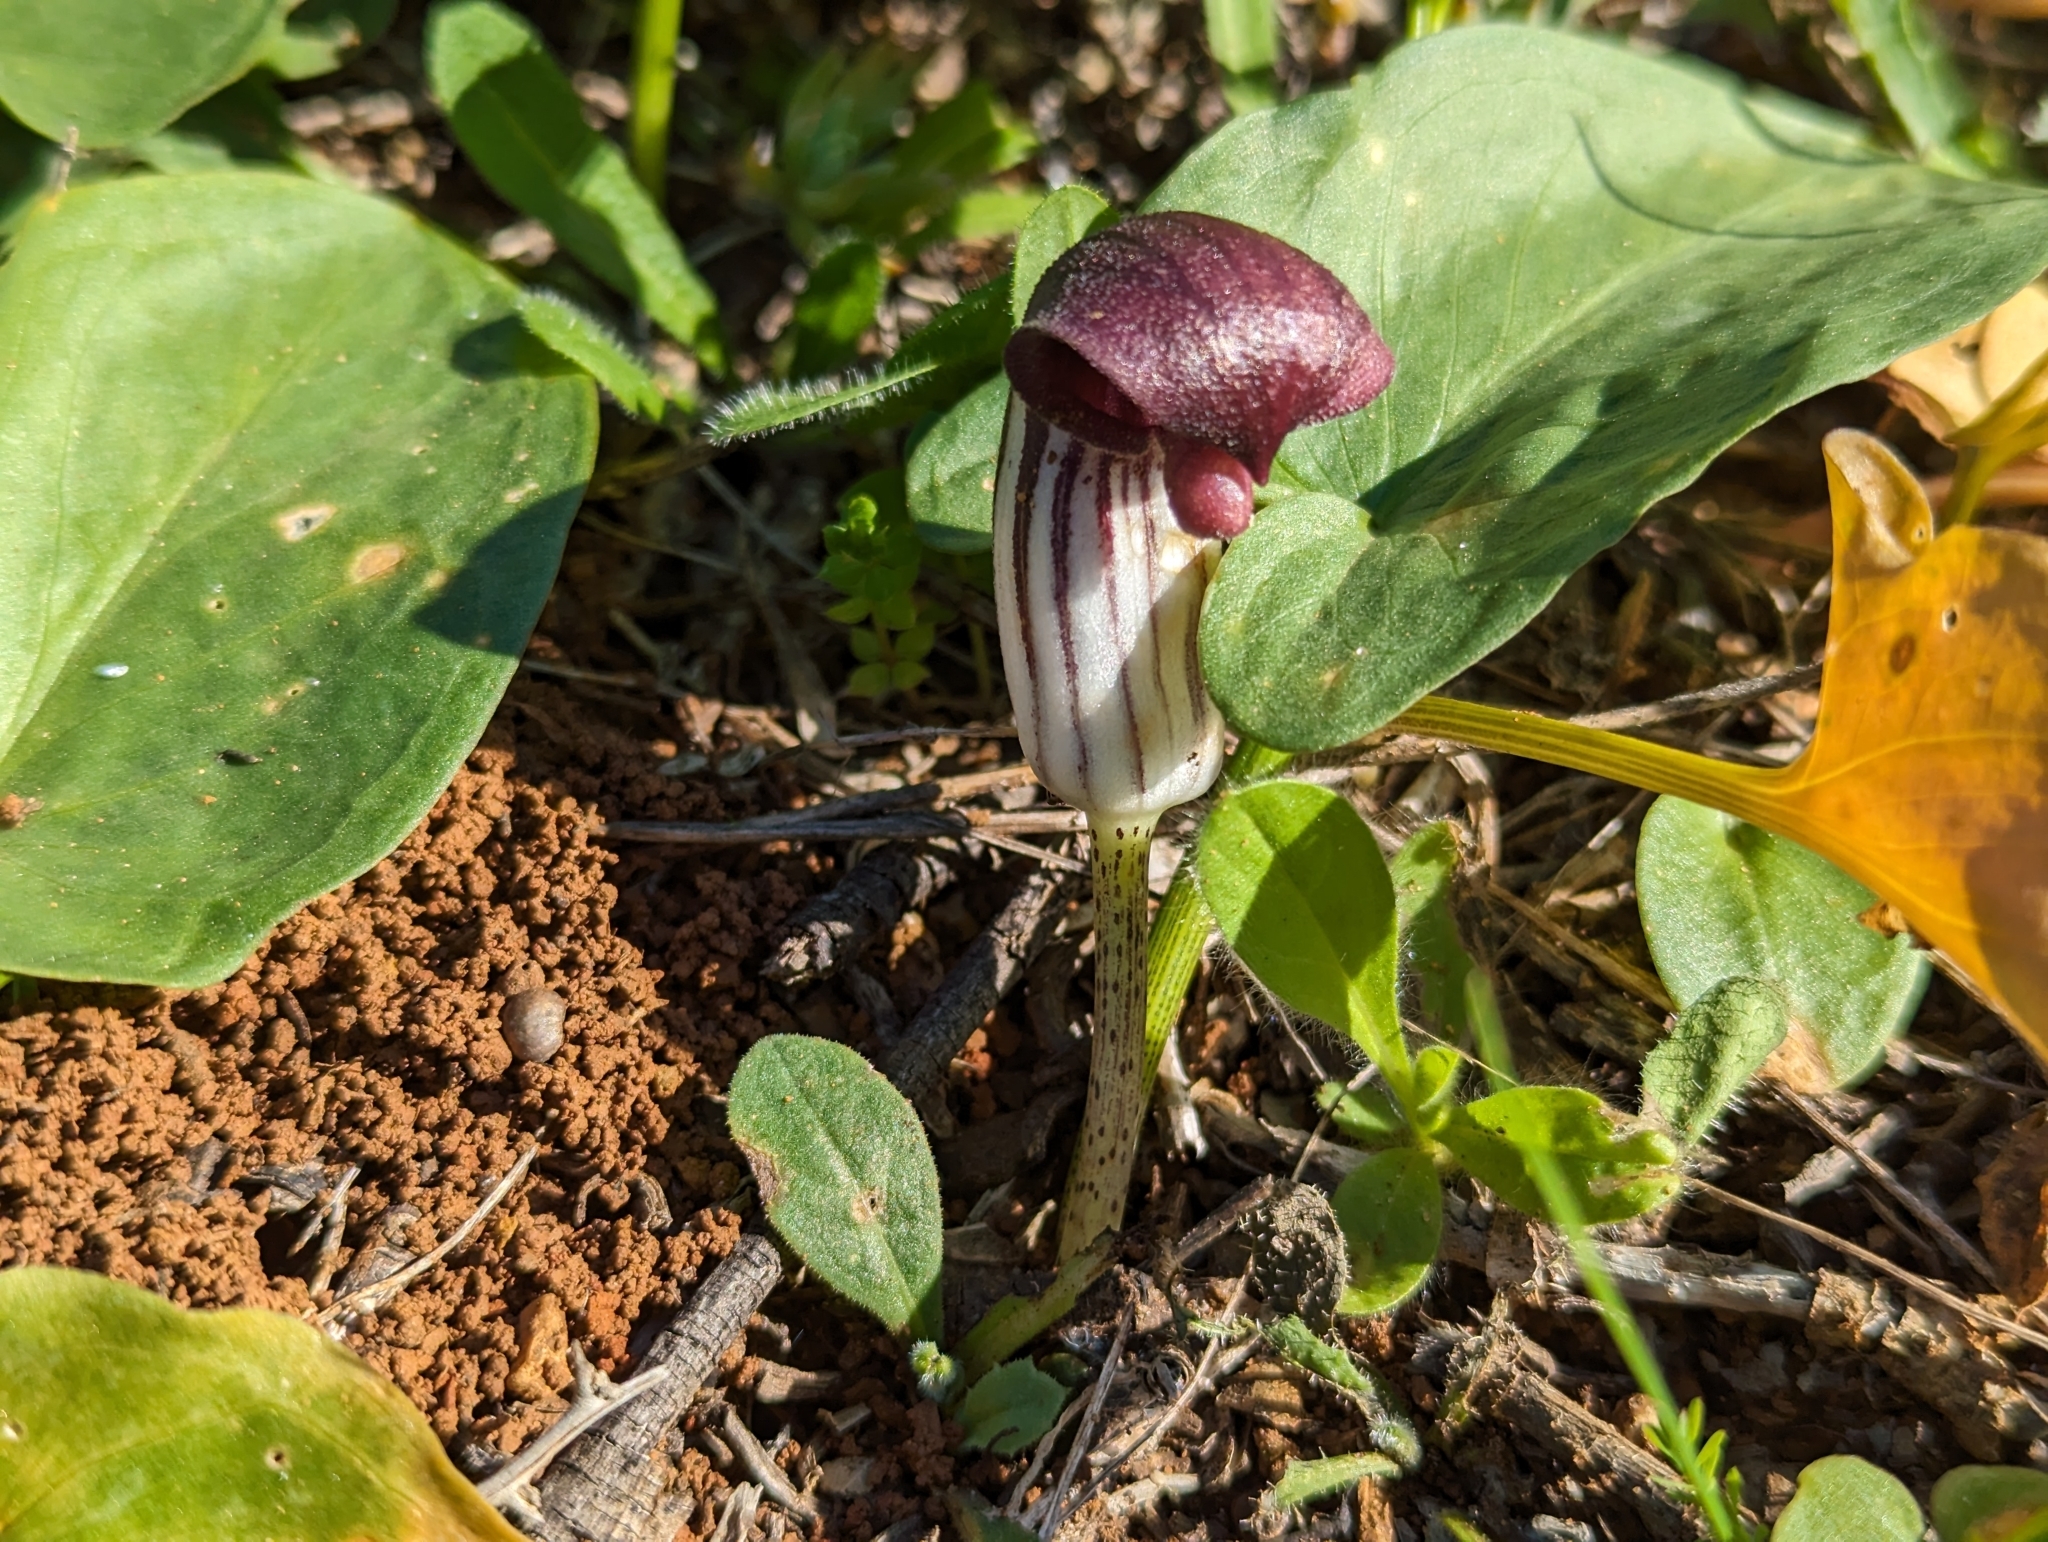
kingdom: Plantae
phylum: Tracheophyta
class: Liliopsida
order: Alismatales
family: Araceae
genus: Arisarum
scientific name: Arisarum simorrhinum
